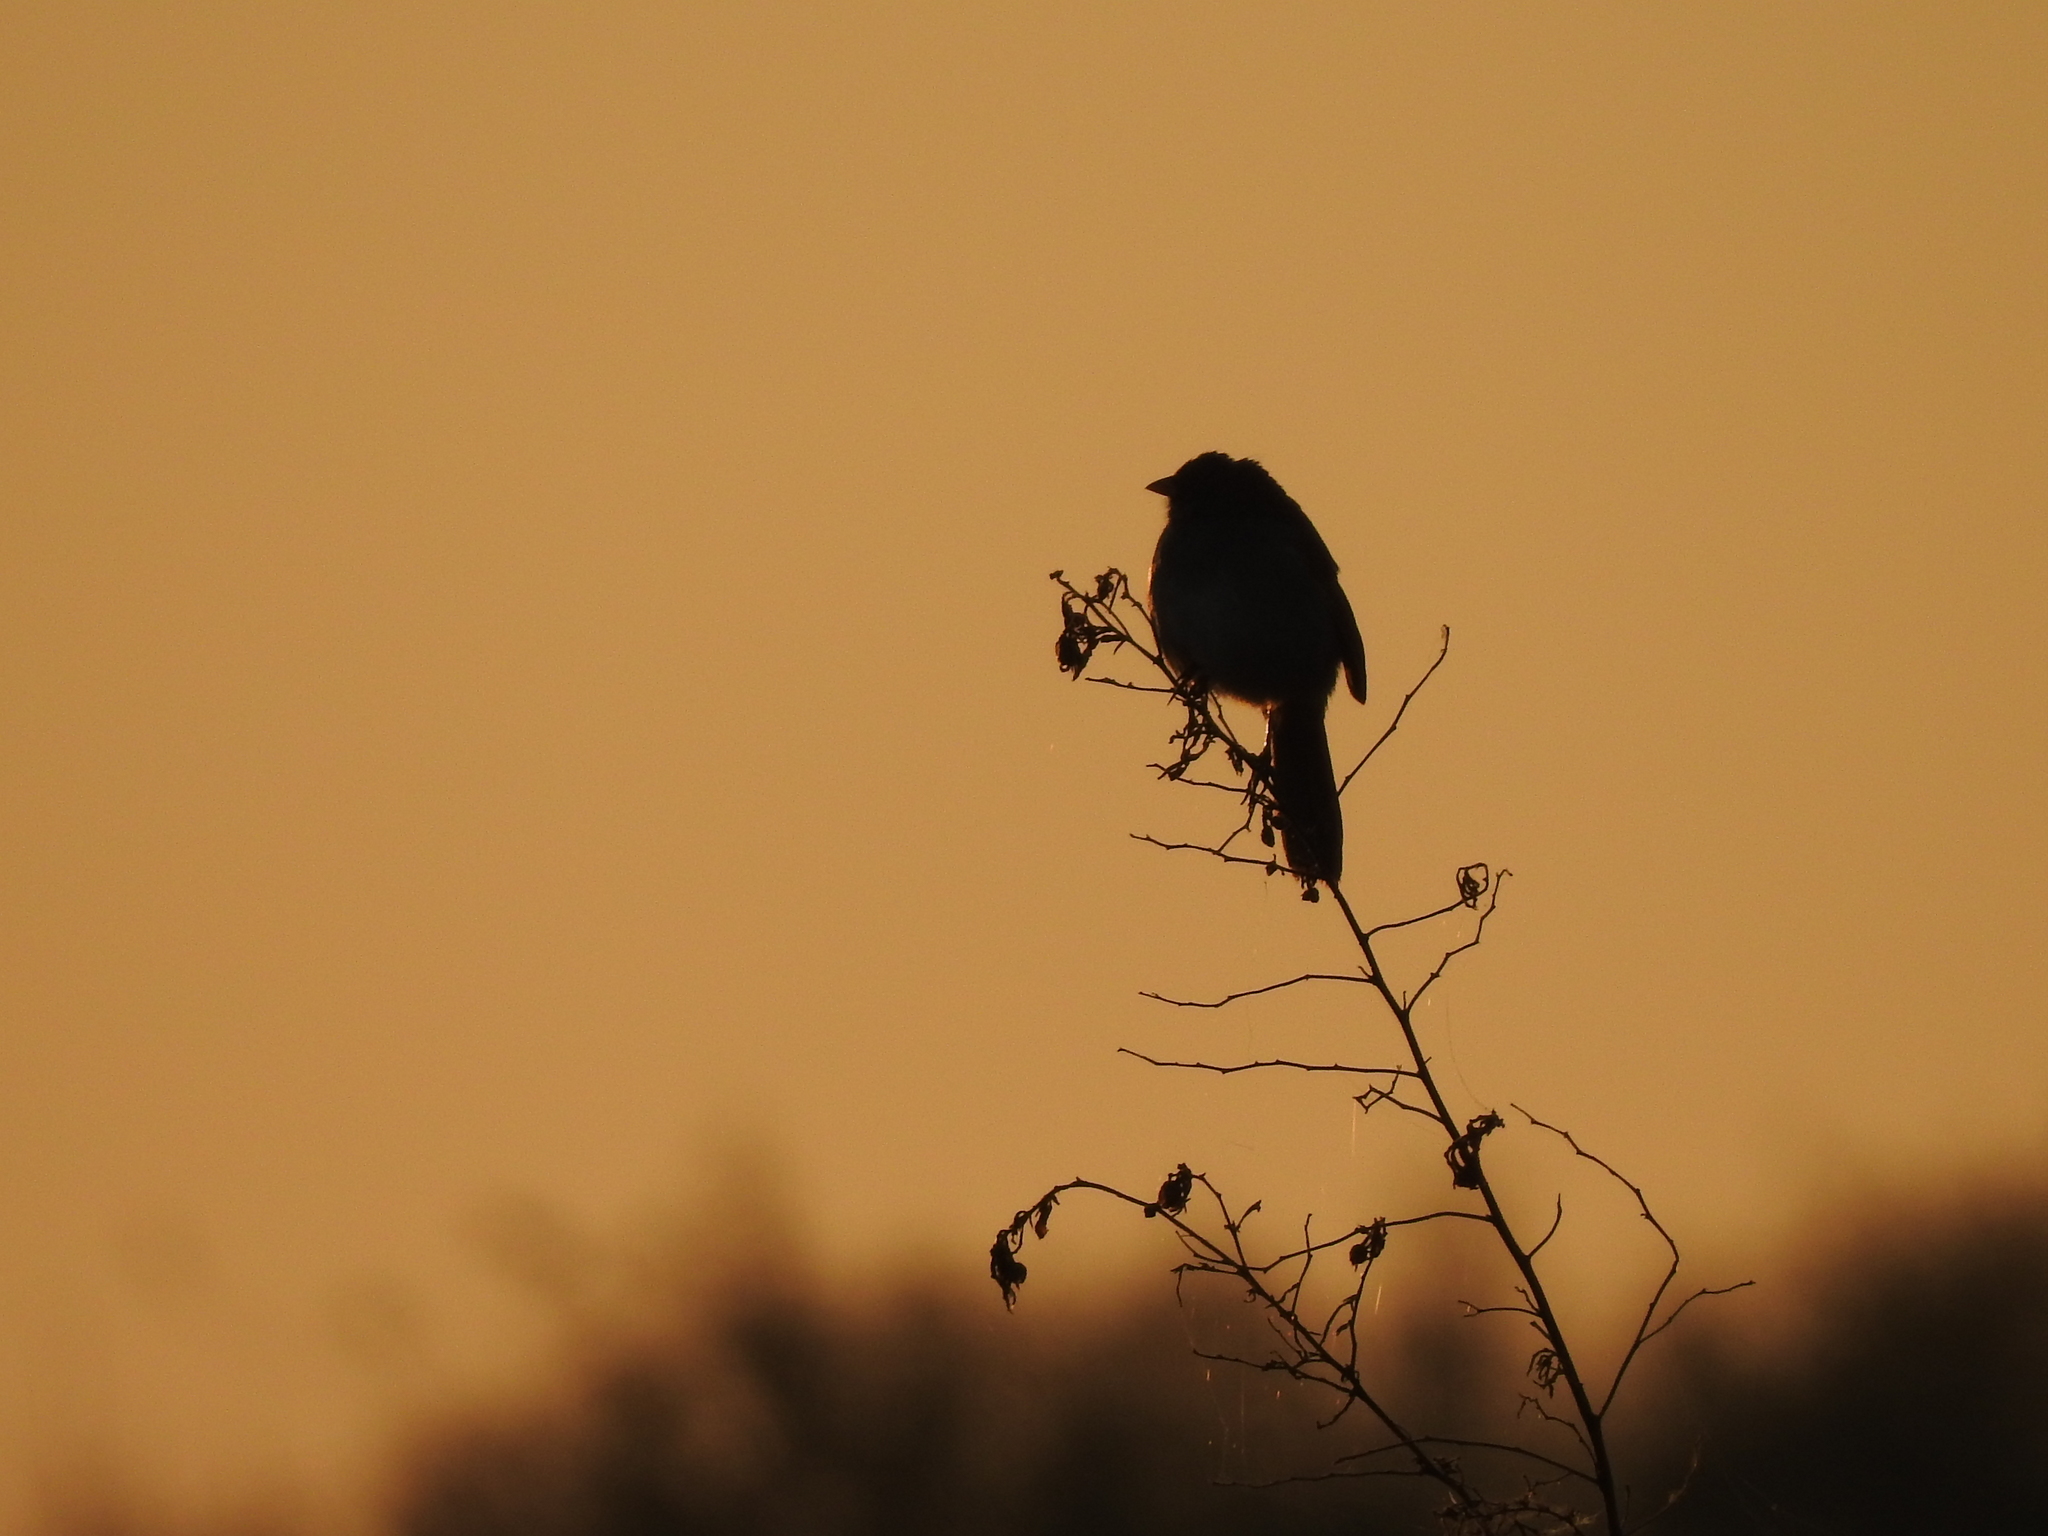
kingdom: Animalia
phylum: Chordata
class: Aves
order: Passeriformes
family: Thraupidae
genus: Embernagra
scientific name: Embernagra platensis
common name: Pampa finch
